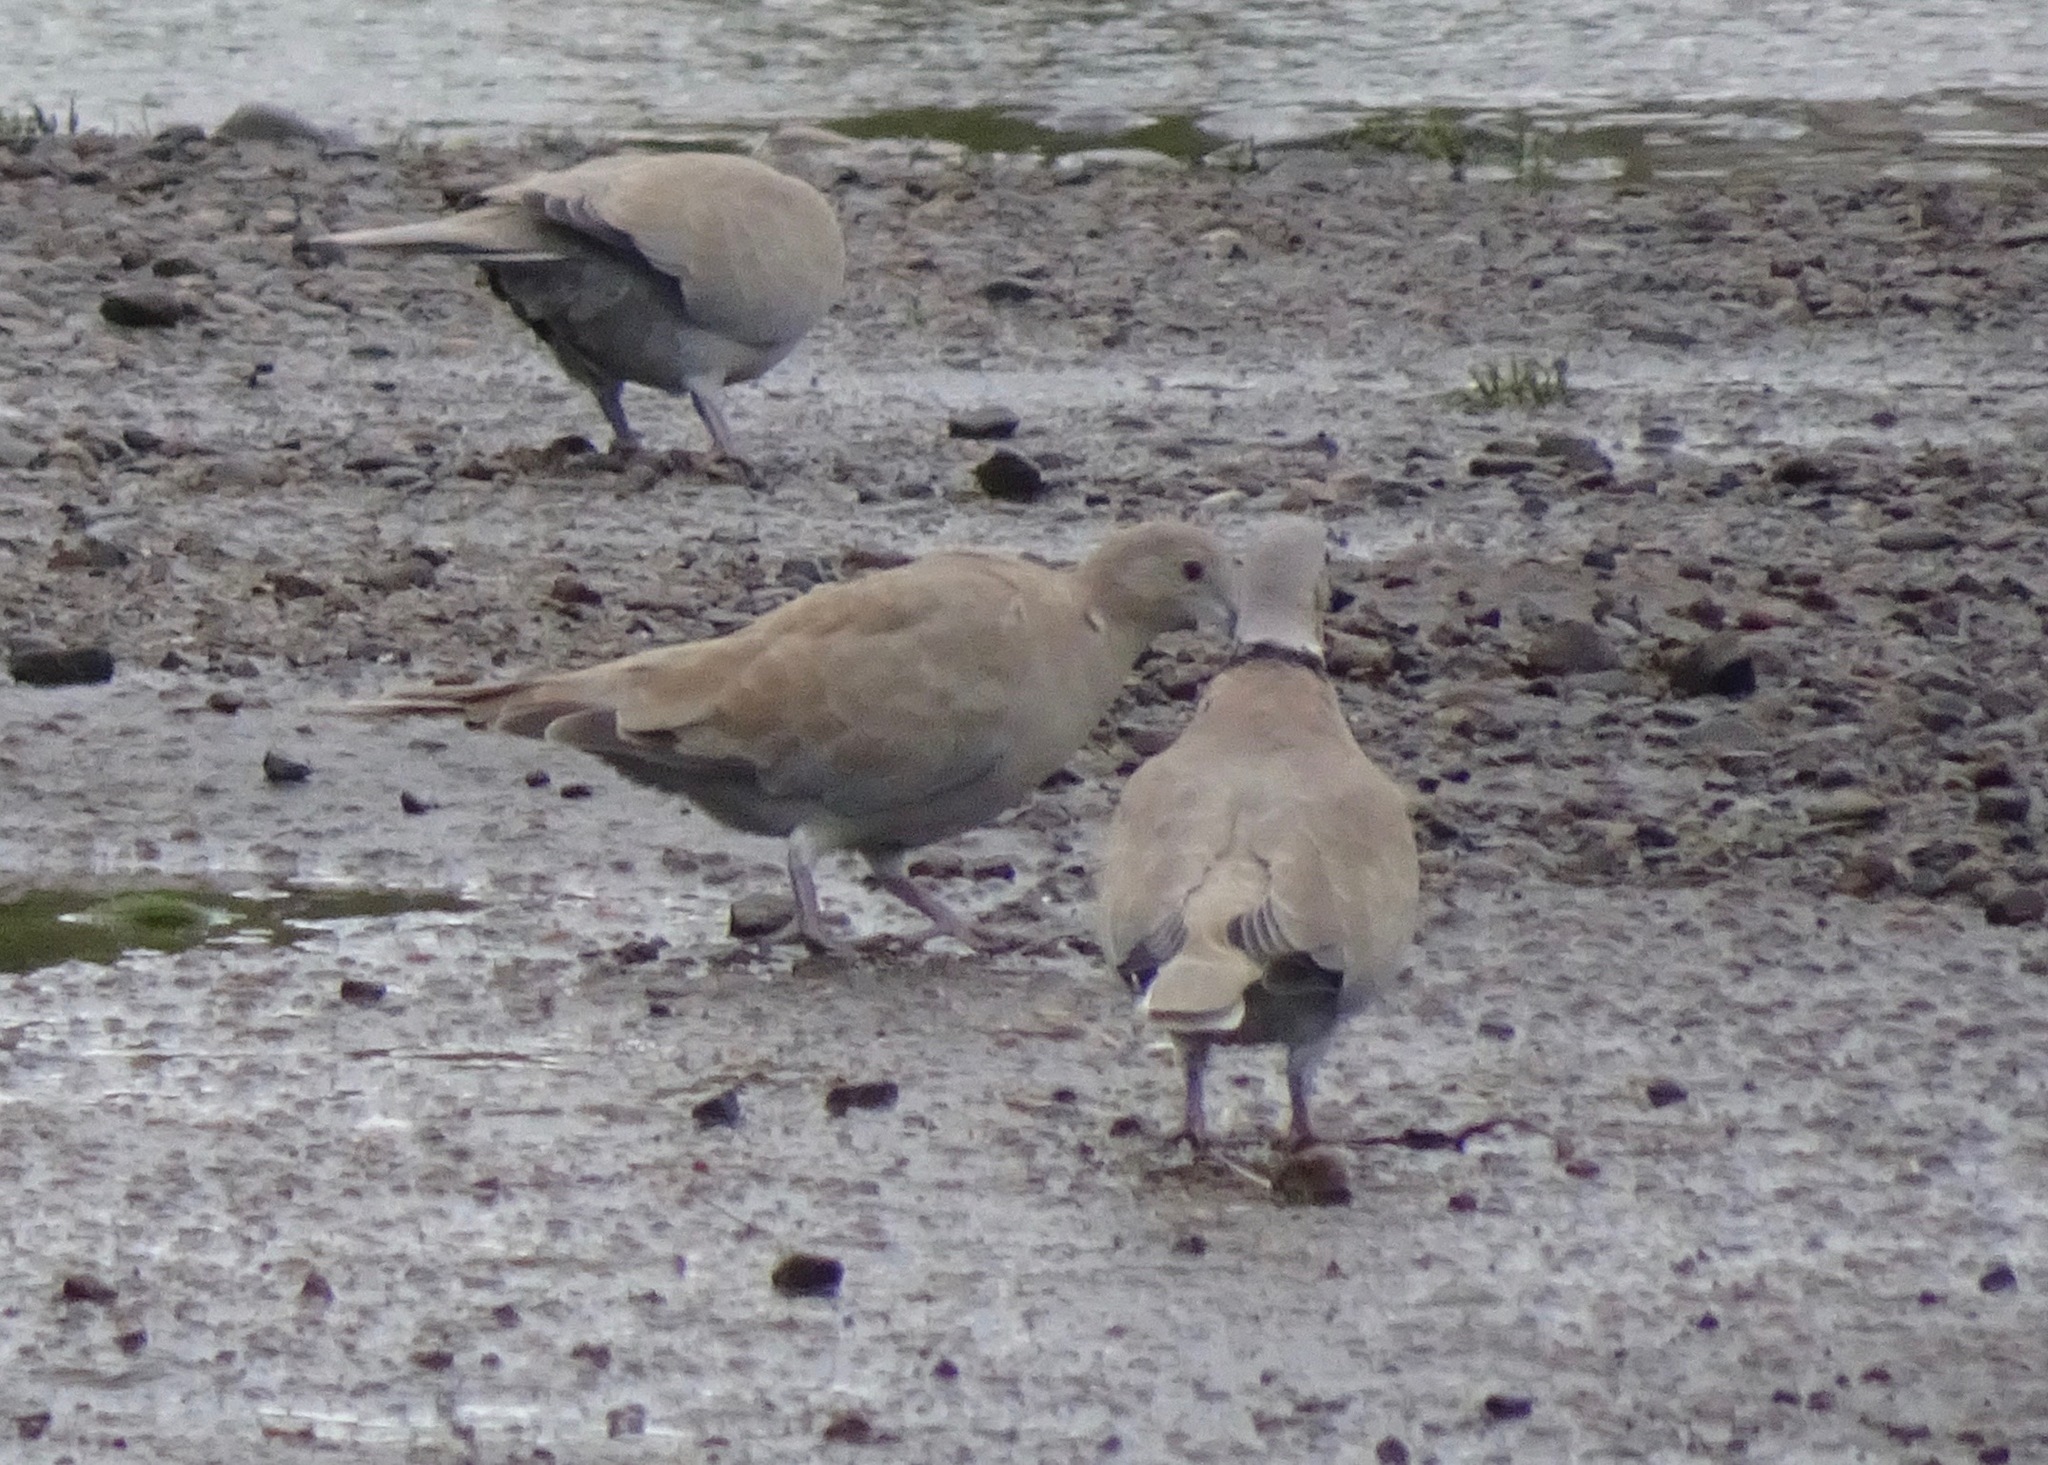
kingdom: Animalia
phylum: Chordata
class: Aves
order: Columbiformes
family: Columbidae
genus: Streptopelia
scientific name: Streptopelia decaocto
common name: Eurasian collared dove
